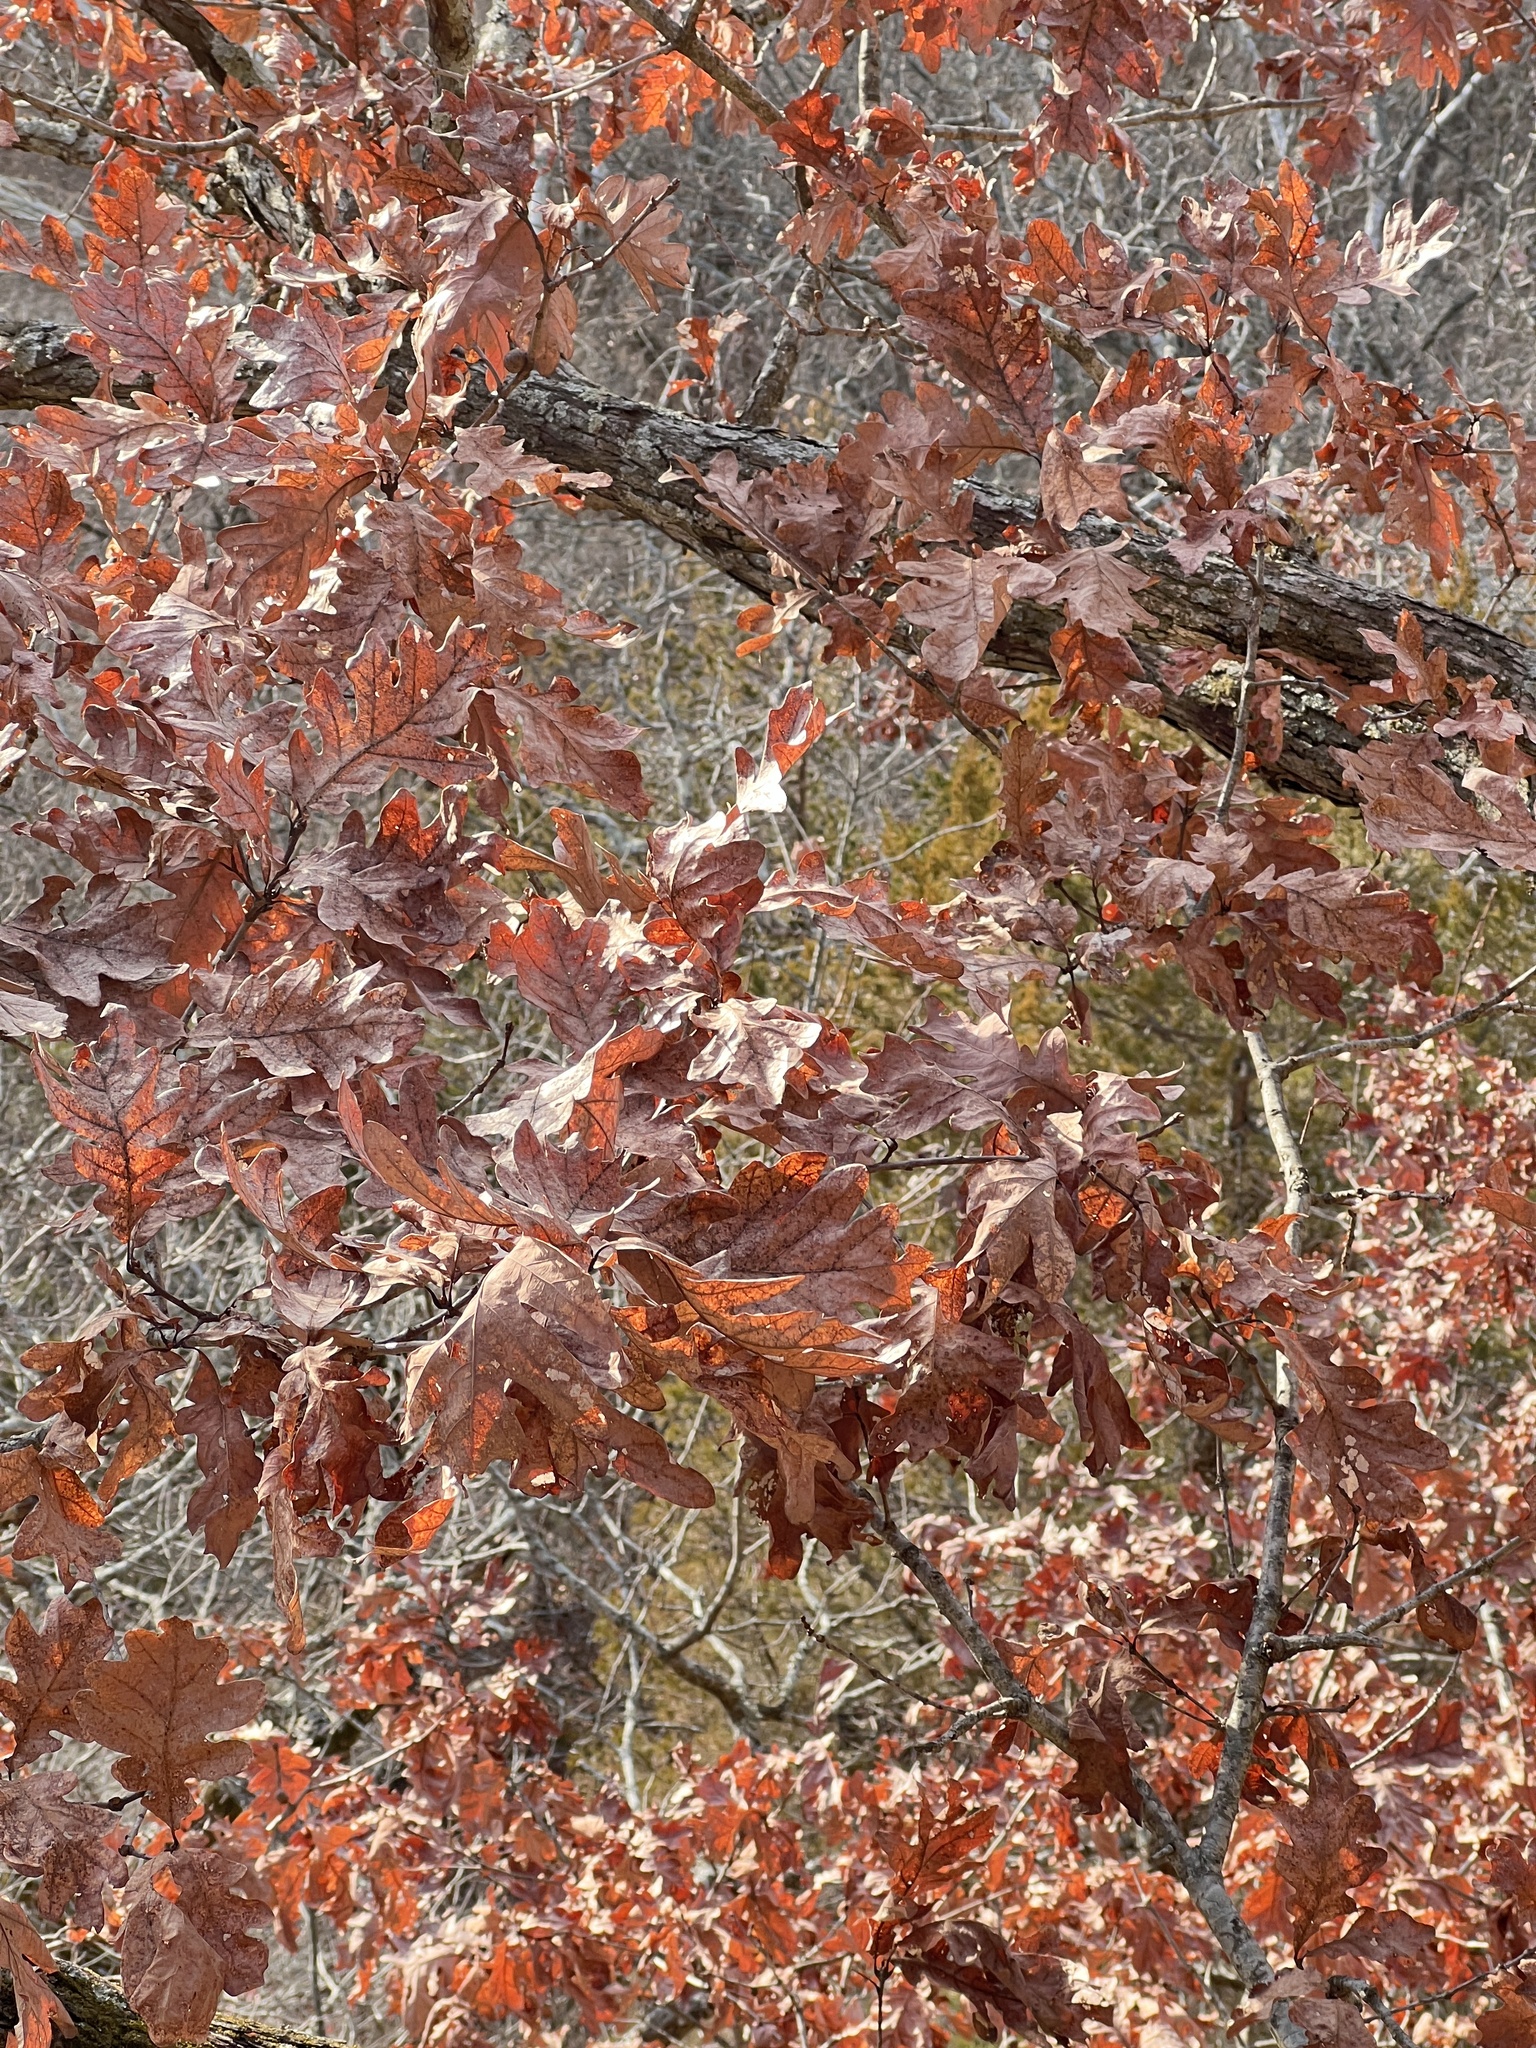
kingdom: Plantae
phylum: Tracheophyta
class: Magnoliopsida
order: Fagales
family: Fagaceae
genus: Quercus
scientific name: Quercus alba
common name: White oak
